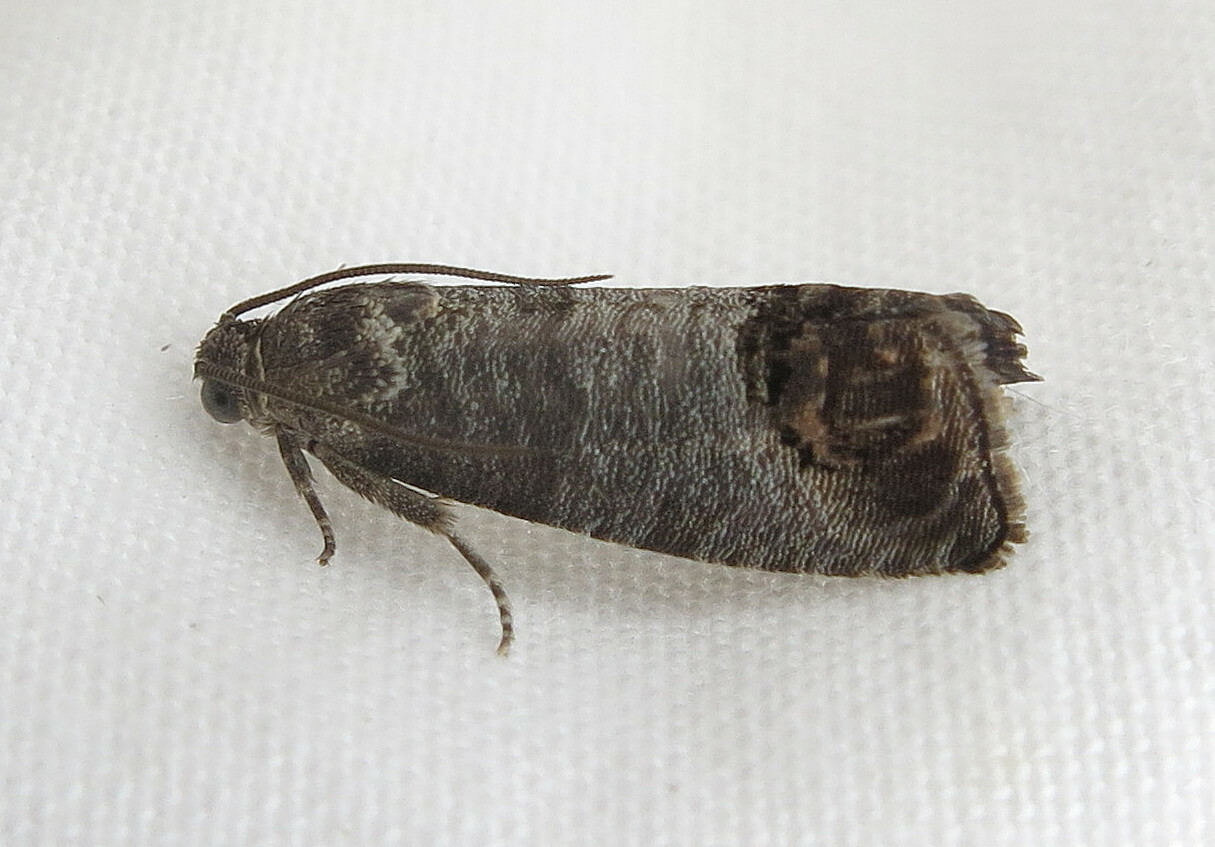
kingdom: Animalia
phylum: Arthropoda
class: Insecta
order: Lepidoptera
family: Tortricidae
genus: Cydia
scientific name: Cydia pomonella
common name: Codling moth
